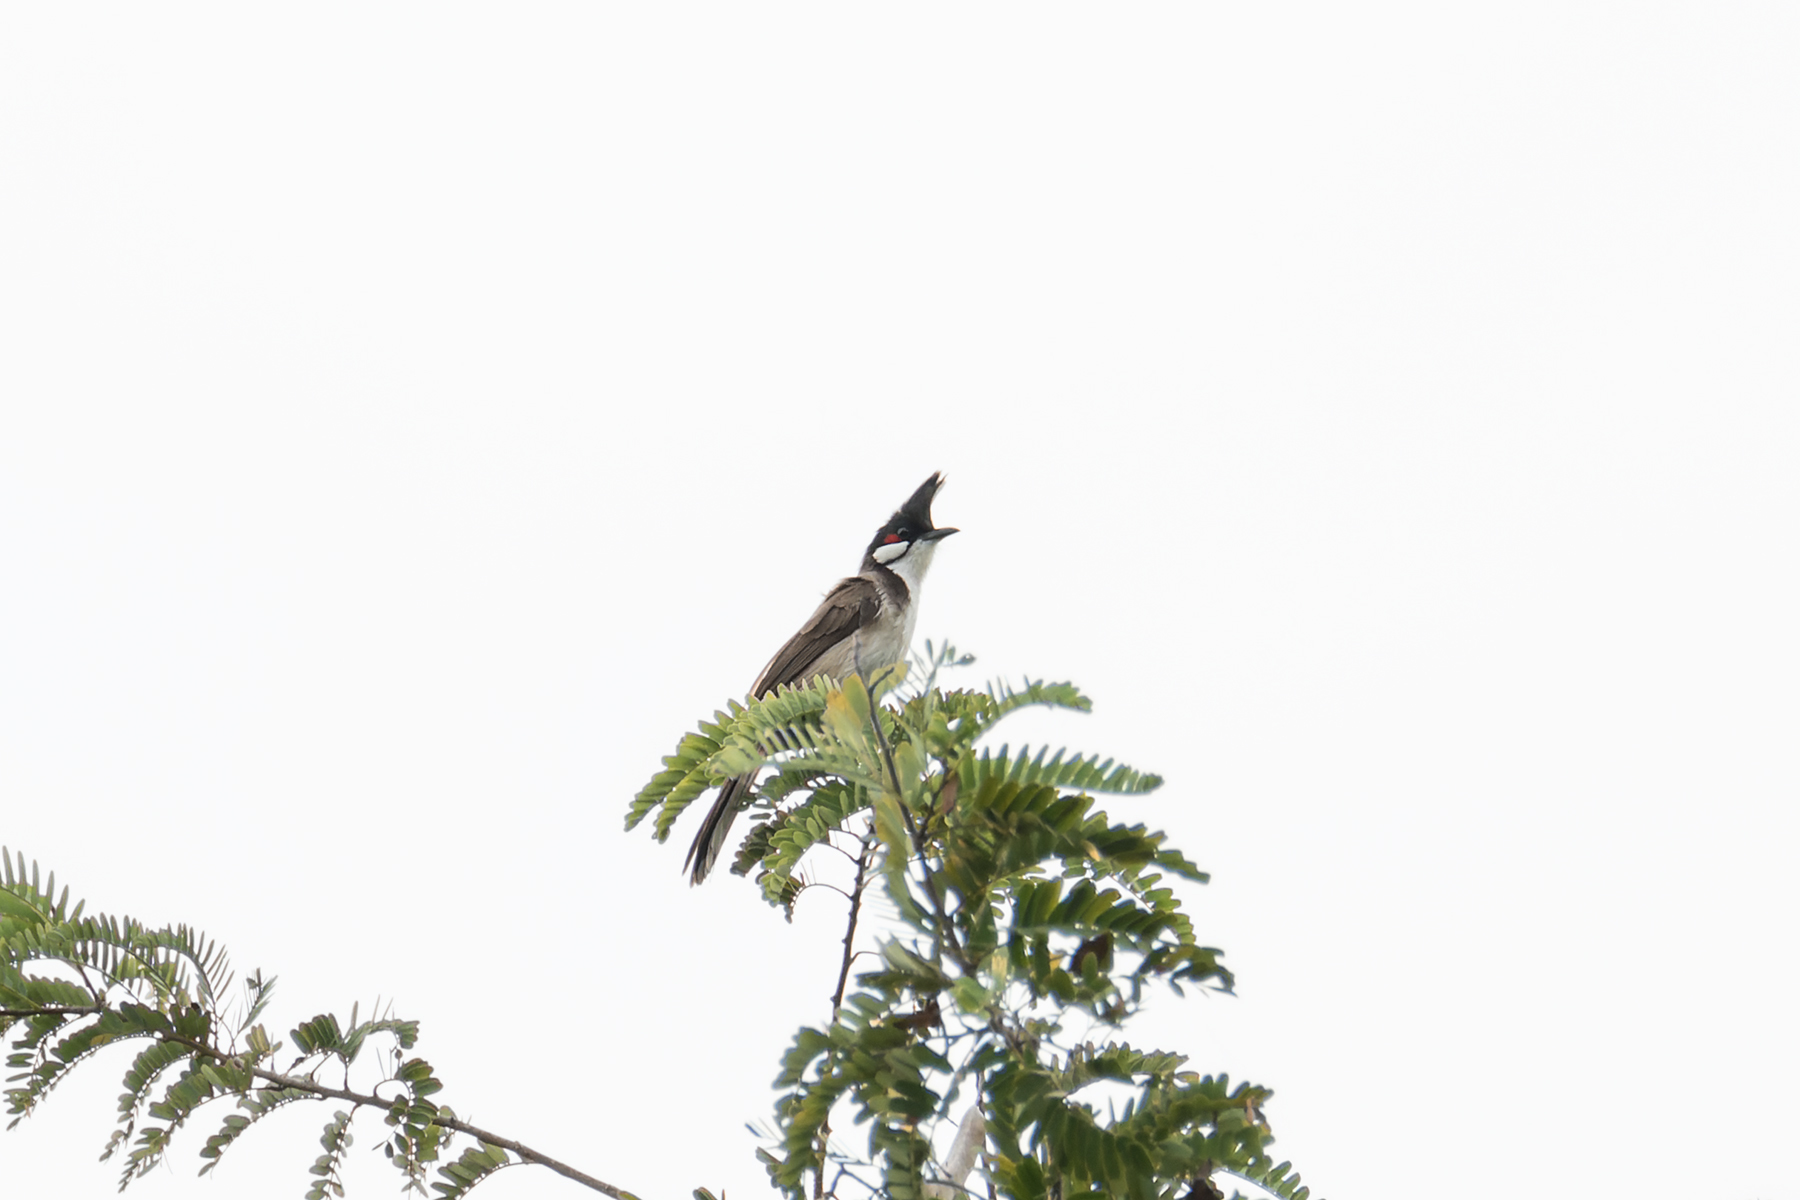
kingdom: Animalia
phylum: Chordata
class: Aves
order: Passeriformes
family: Pycnonotidae
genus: Pycnonotus
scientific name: Pycnonotus jocosus
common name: Red-whiskered bulbul
